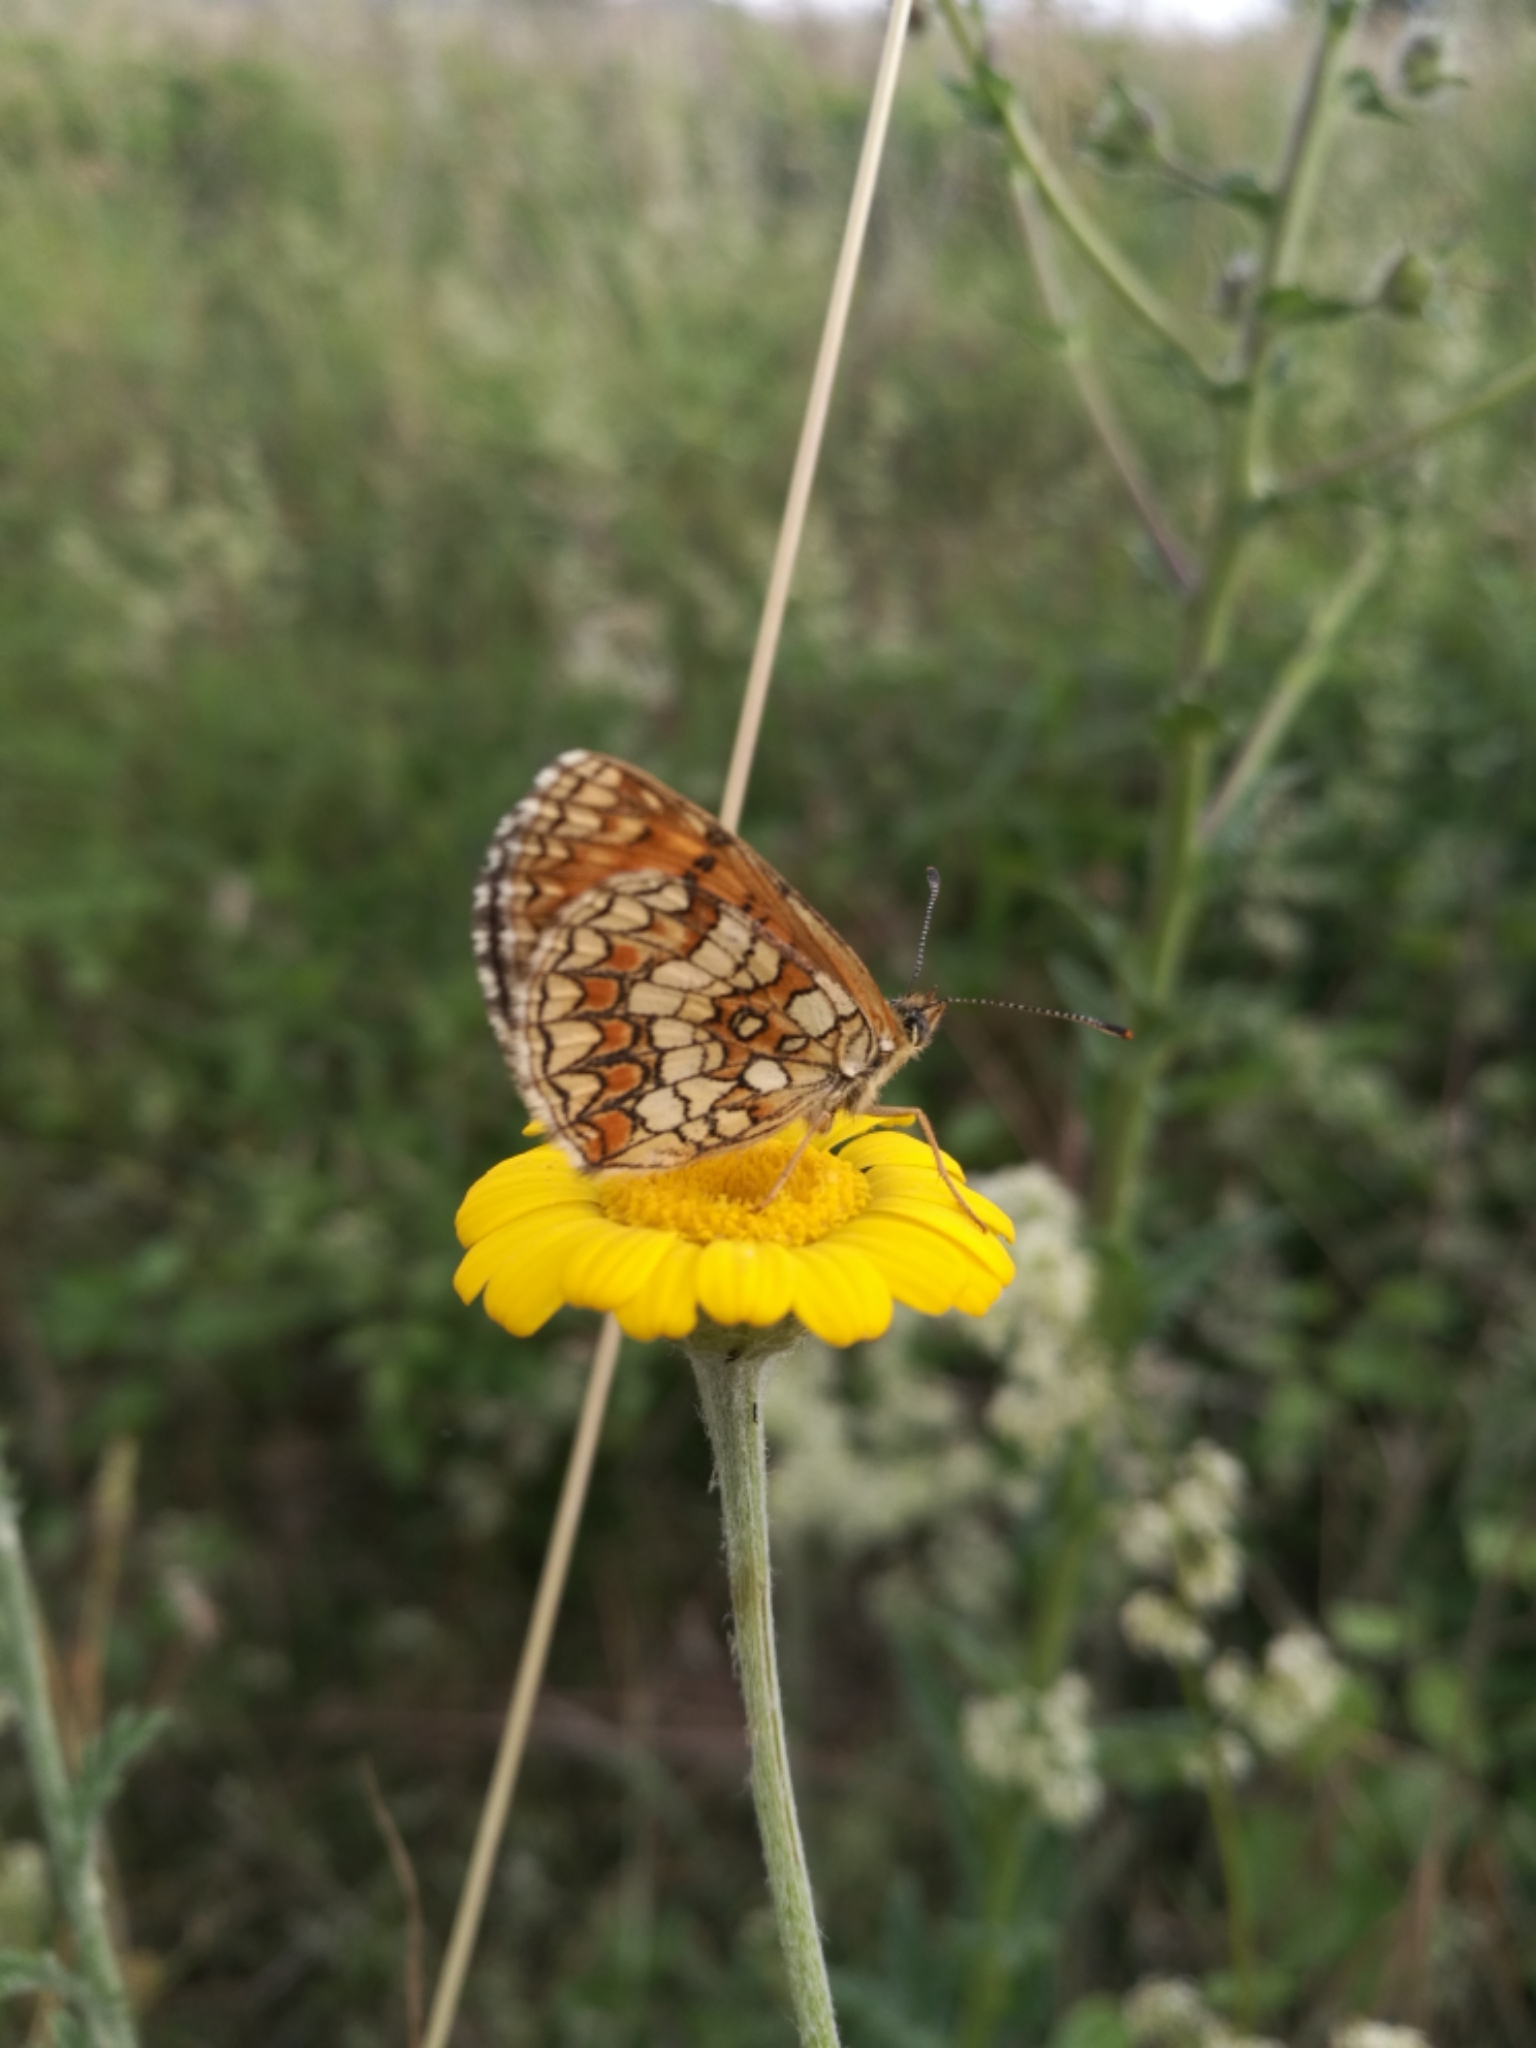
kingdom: Animalia
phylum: Arthropoda
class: Insecta
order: Lepidoptera
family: Nymphalidae
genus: Mellicta
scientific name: Mellicta athalia
